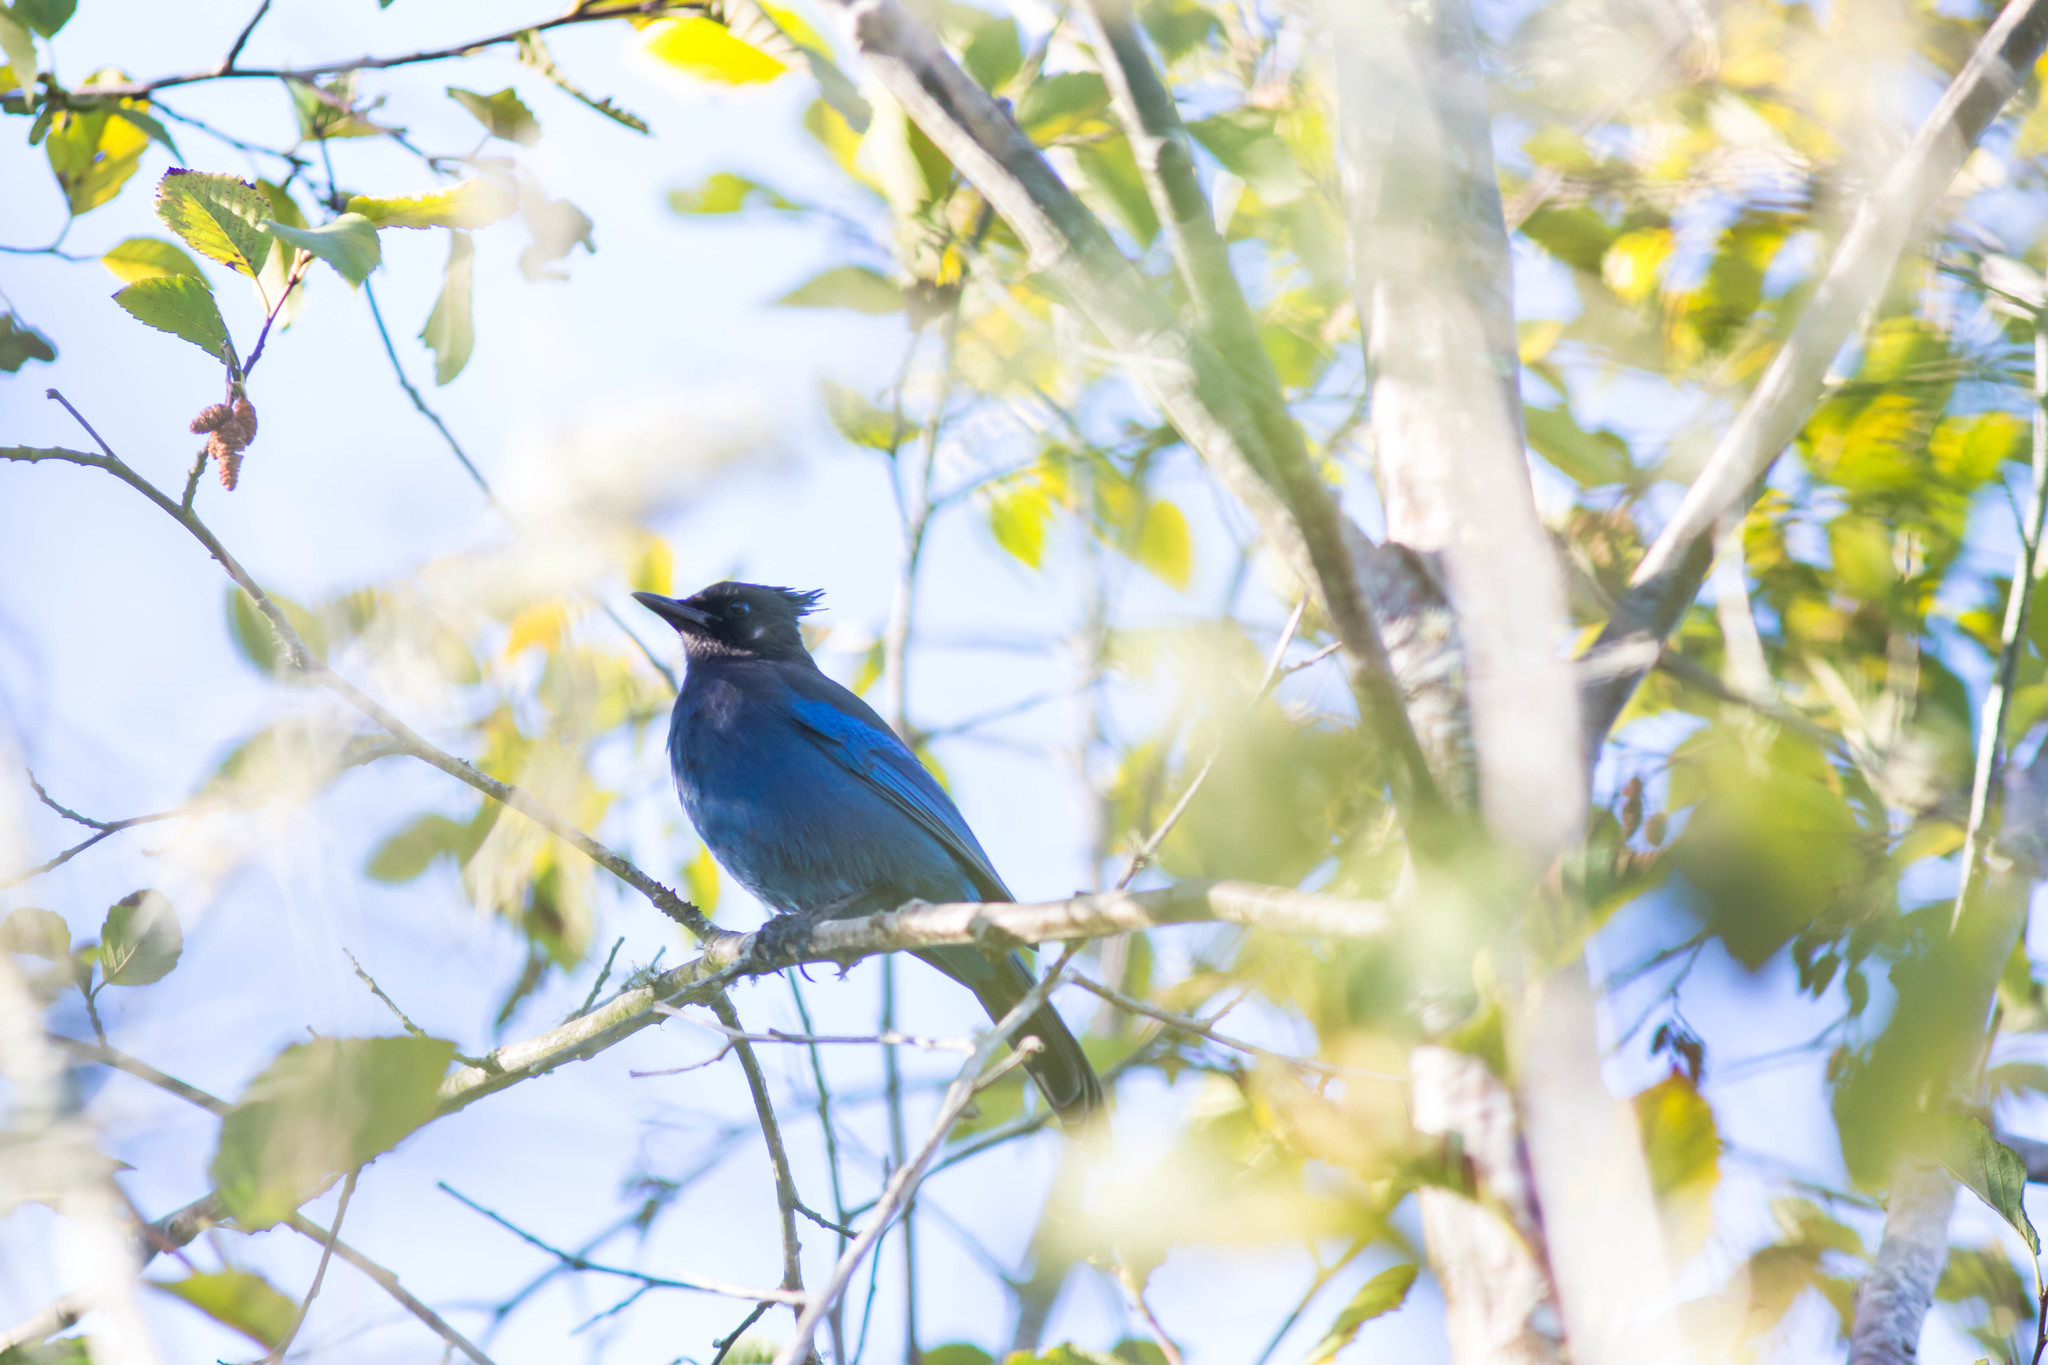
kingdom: Animalia
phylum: Chordata
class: Aves
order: Passeriformes
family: Corvidae
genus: Cyanocitta
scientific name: Cyanocitta stelleri
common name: Steller's jay
